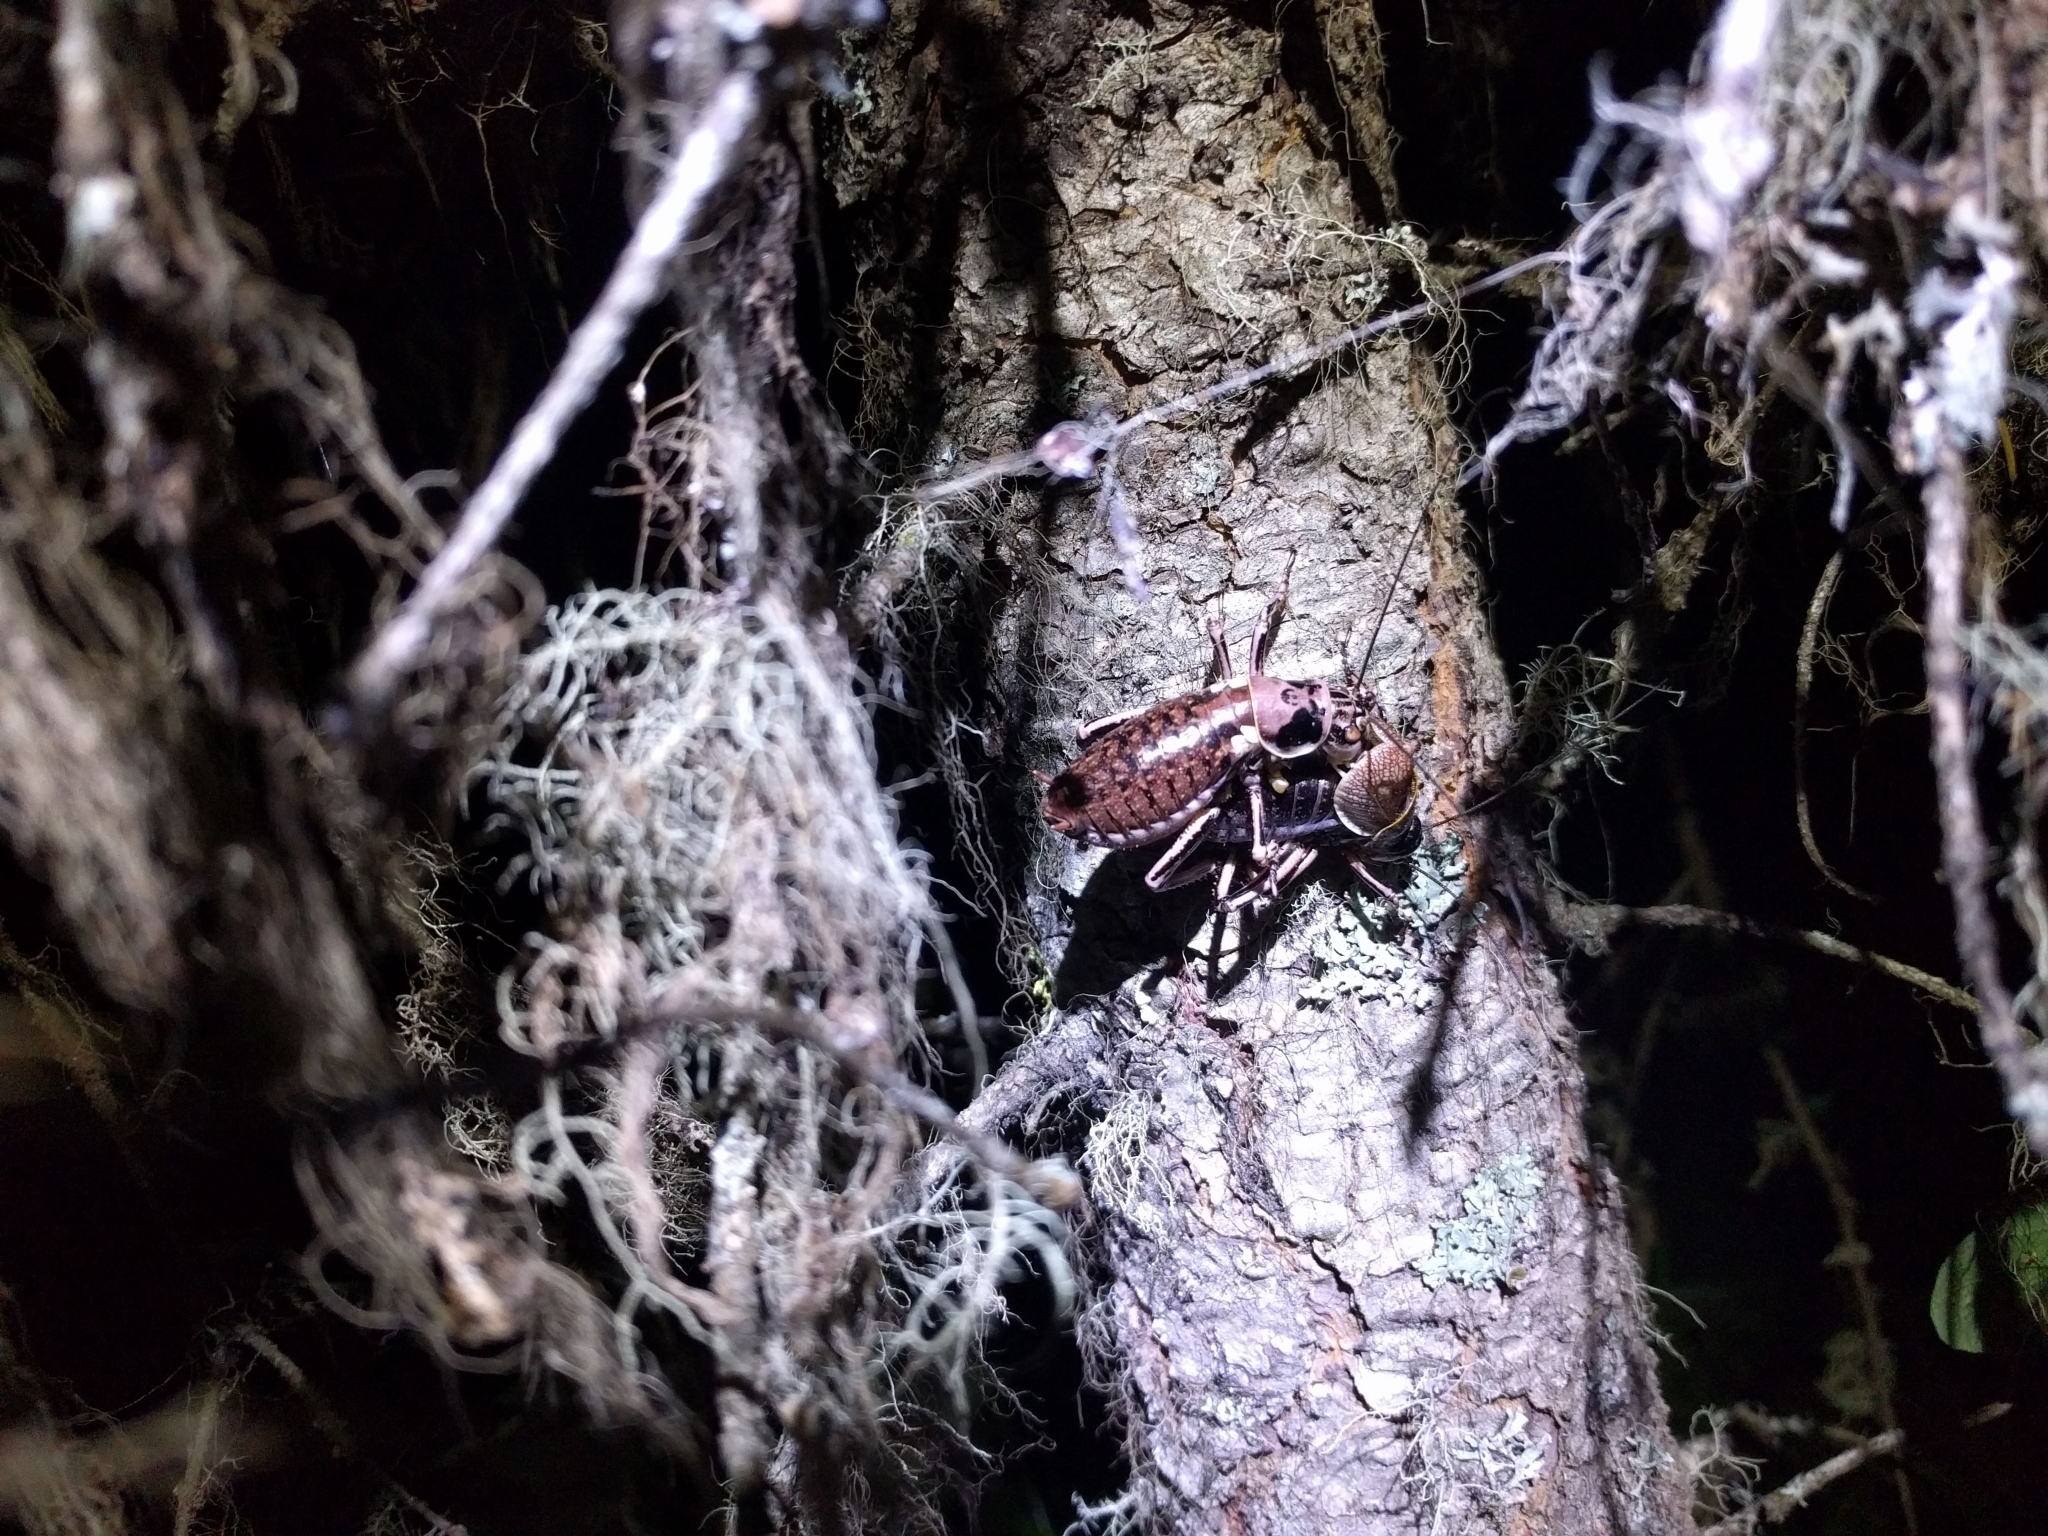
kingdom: Animalia
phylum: Arthropoda
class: Insecta
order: Orthoptera
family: Prophalangopsidae
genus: Cyphoderris
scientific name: Cyphoderris monstrosa
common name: Great grig
